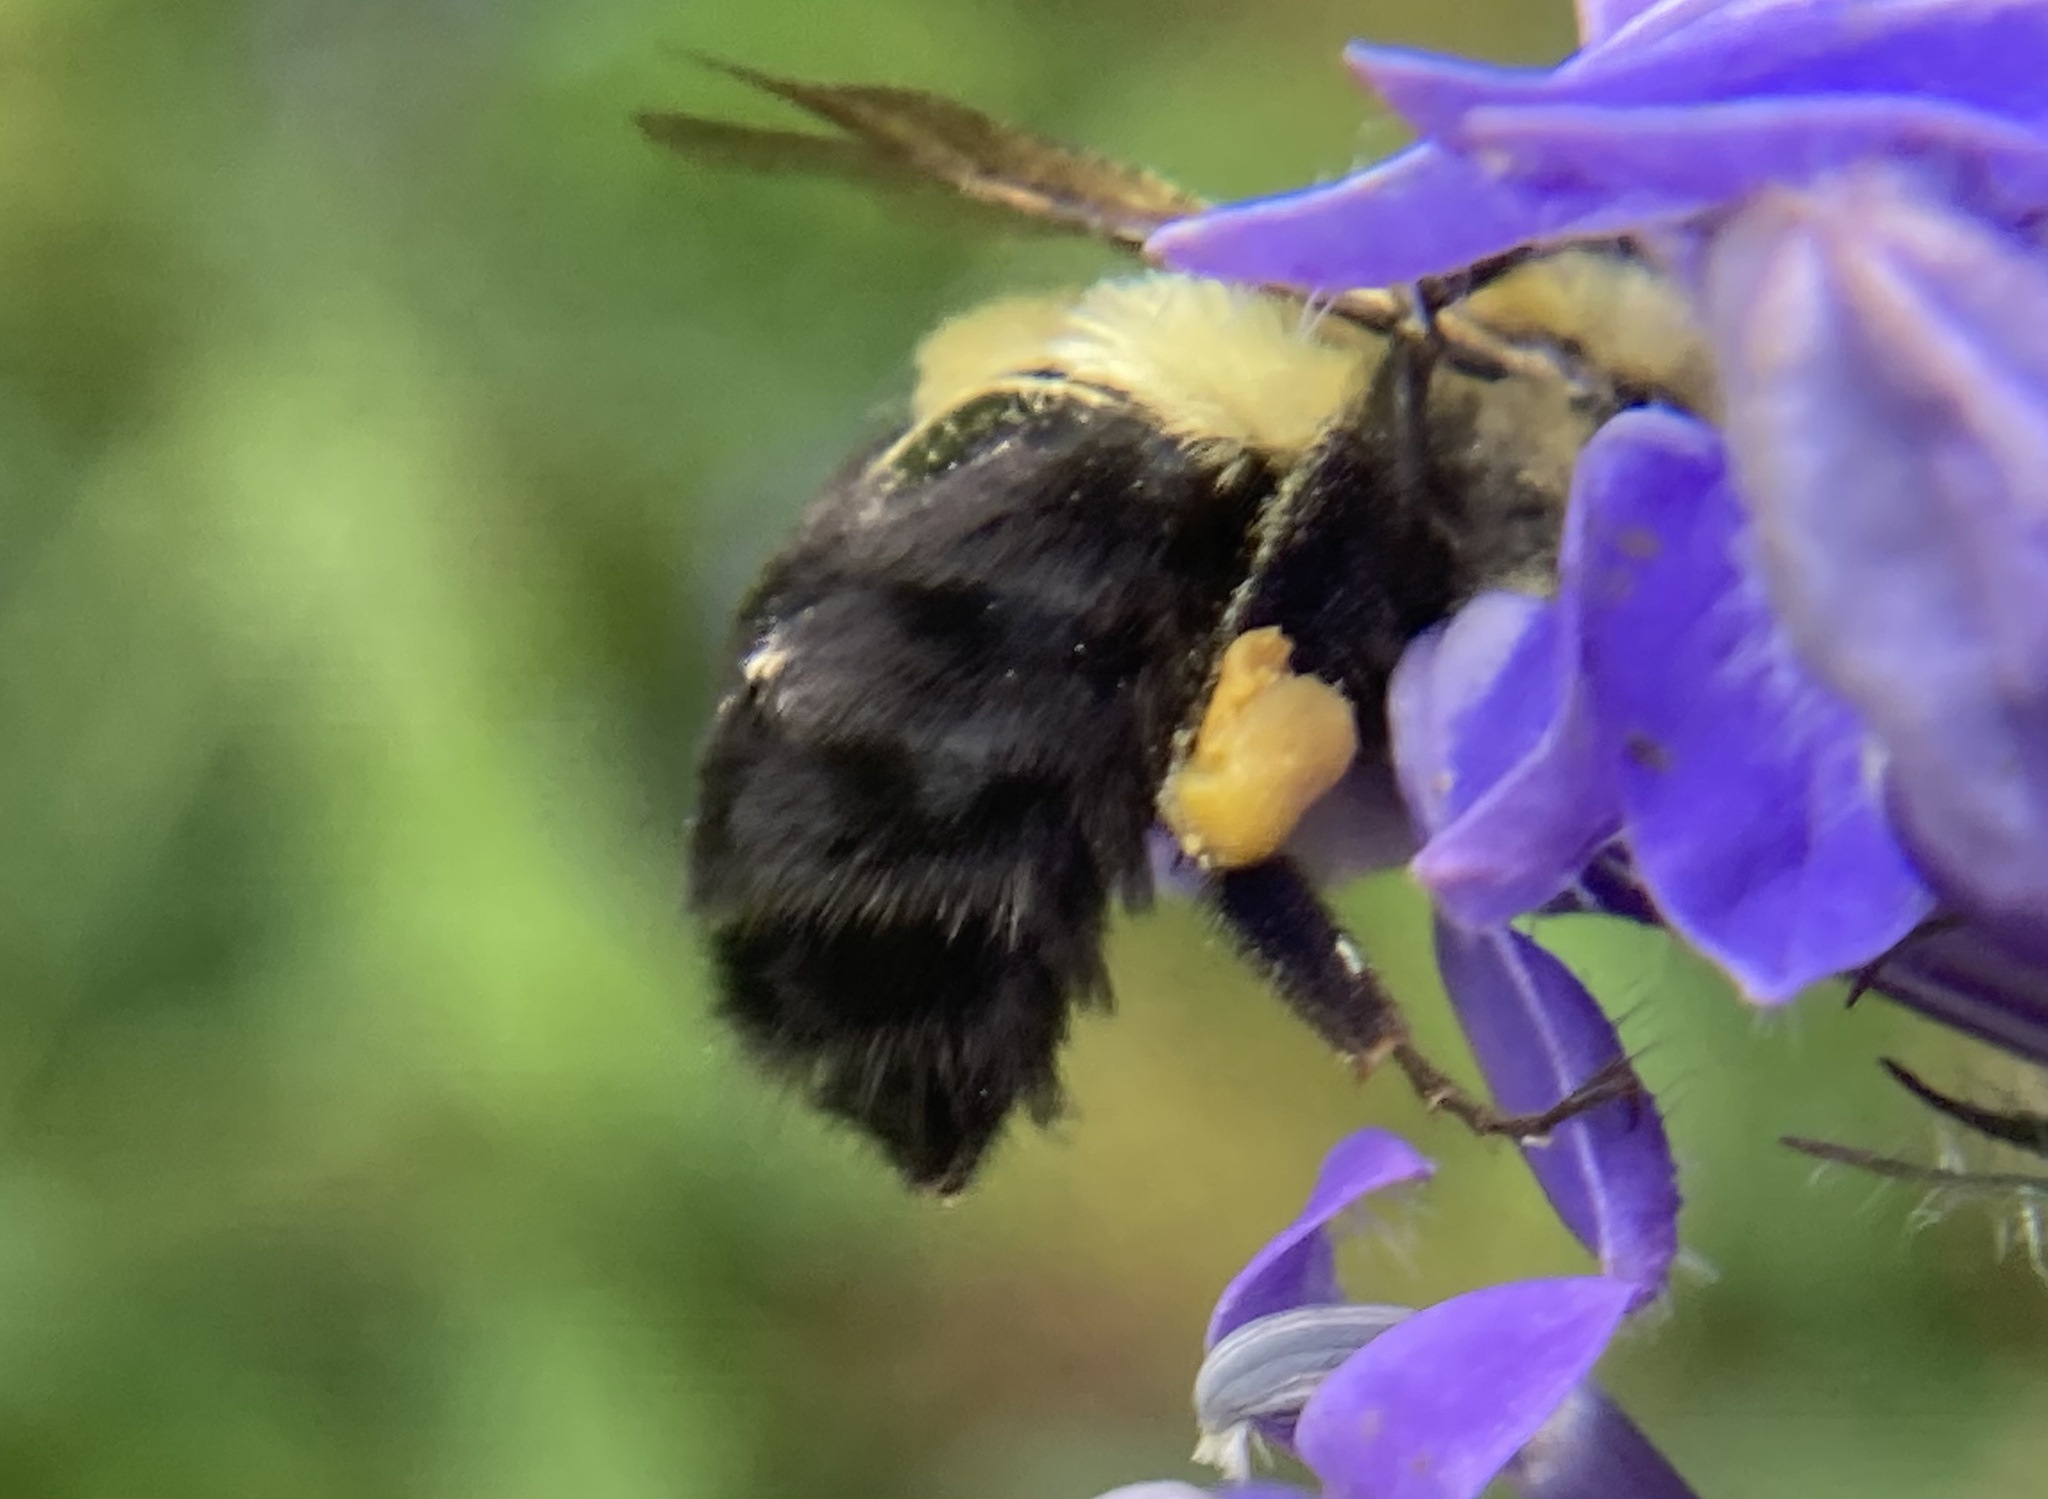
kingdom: Animalia
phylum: Arthropoda
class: Insecta
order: Hymenoptera
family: Apidae
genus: Bombus
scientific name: Bombus impatiens
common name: Common eastern bumble bee
